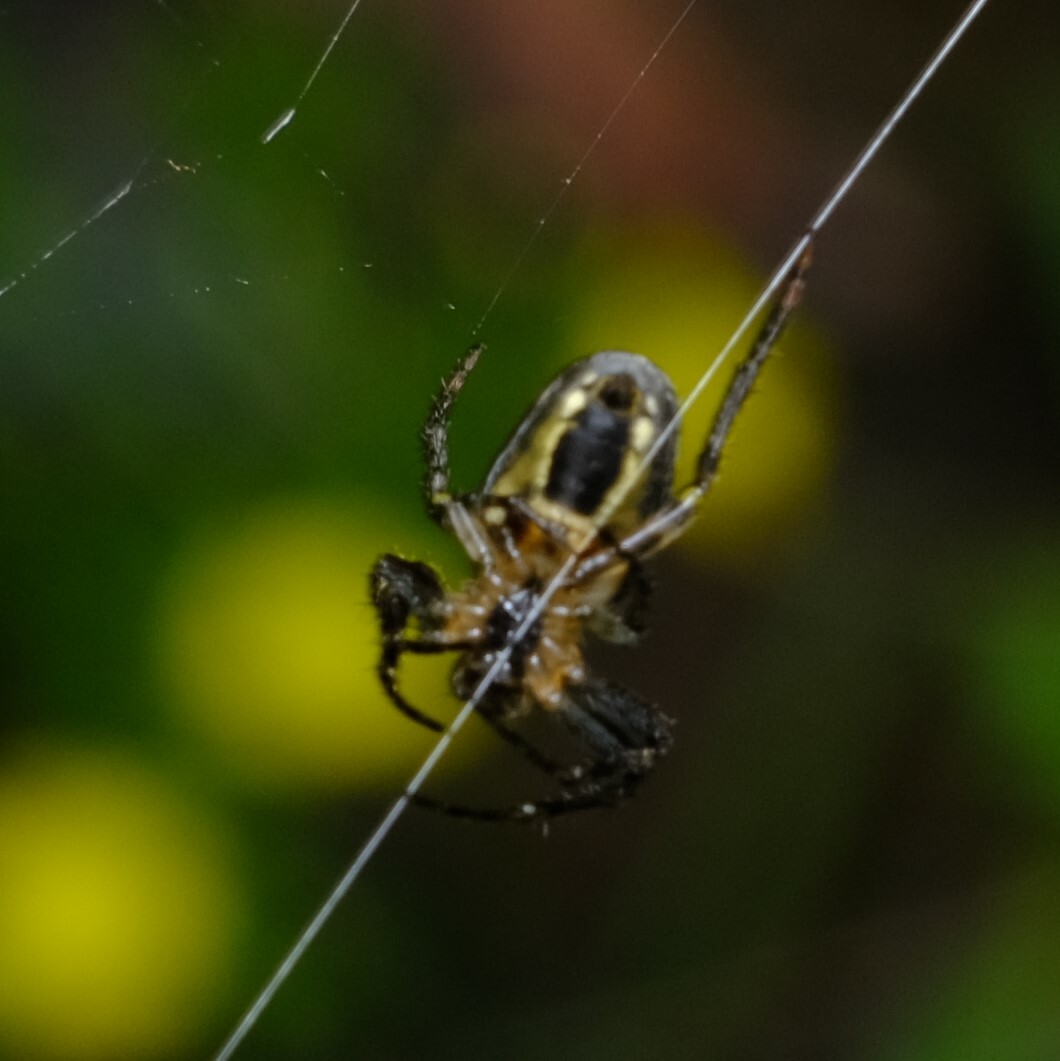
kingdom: Animalia
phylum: Arthropoda
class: Arachnida
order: Araneae
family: Araneidae
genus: Plebs
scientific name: Plebs eburnus
